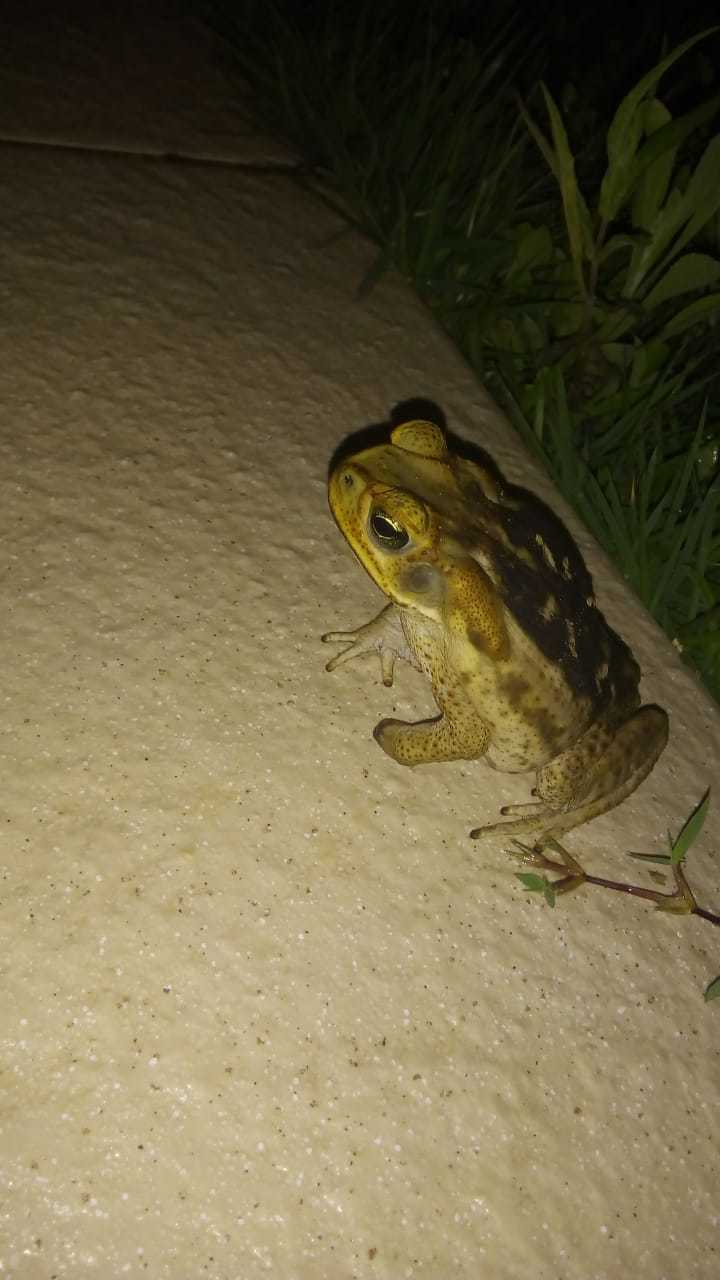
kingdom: Animalia
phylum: Chordata
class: Amphibia
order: Anura
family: Bufonidae
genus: Rhinella
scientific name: Rhinella diptycha
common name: Cope's toad
